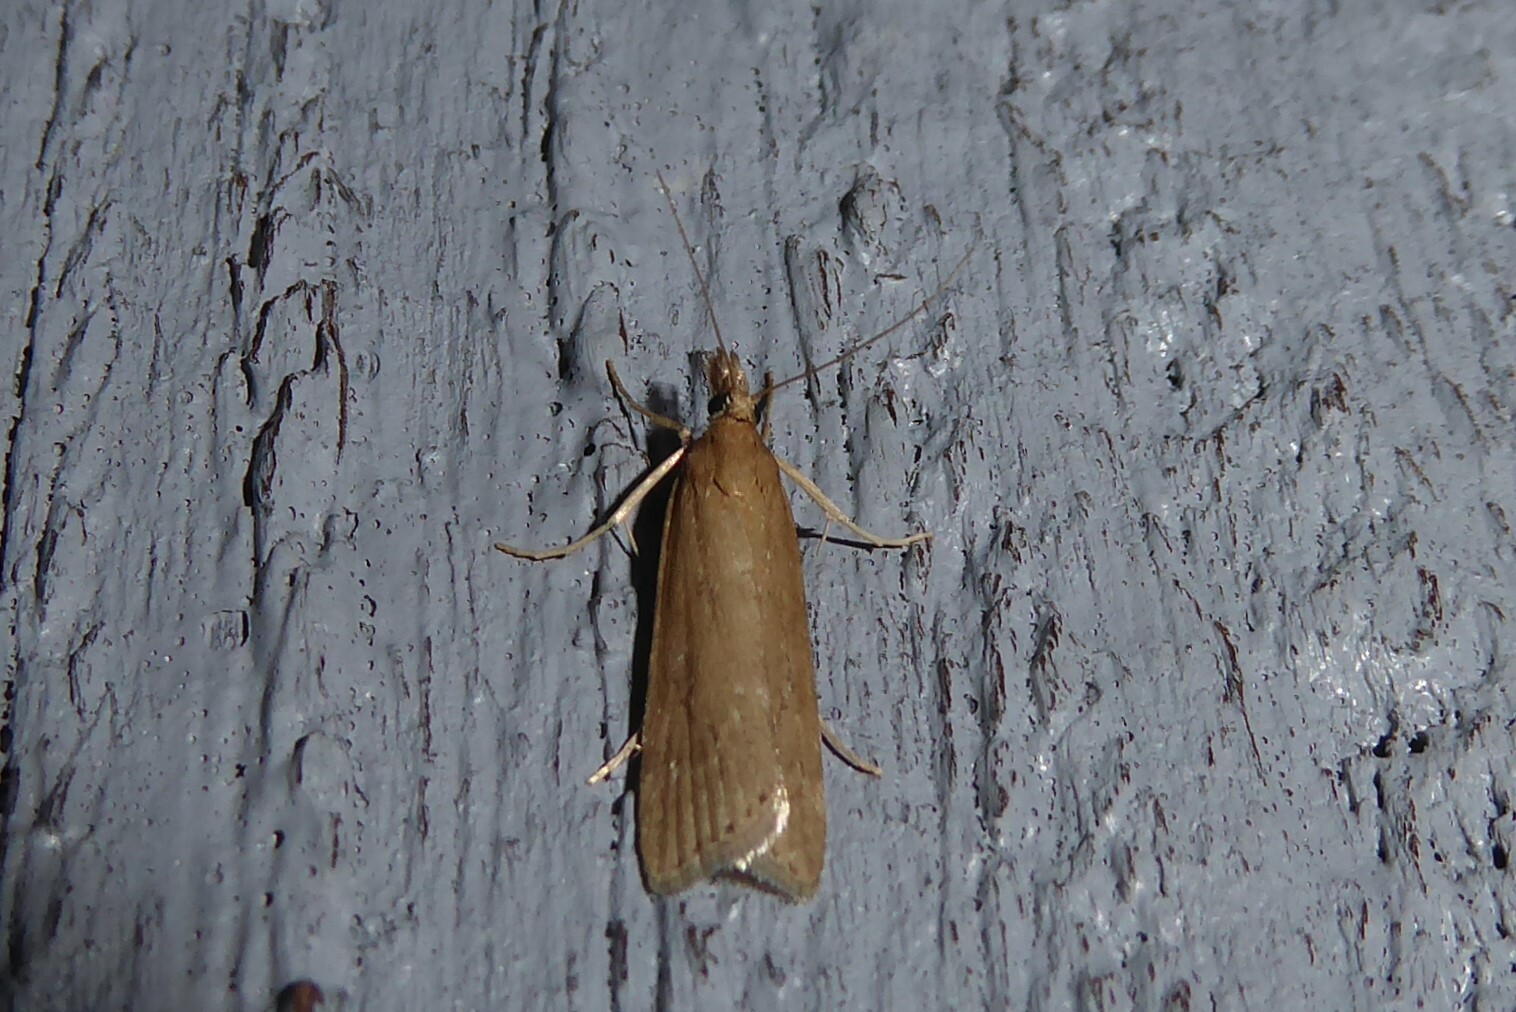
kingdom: Animalia
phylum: Arthropoda
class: Insecta
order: Lepidoptera
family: Crambidae
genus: Eudonia
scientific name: Eudonia octophora
